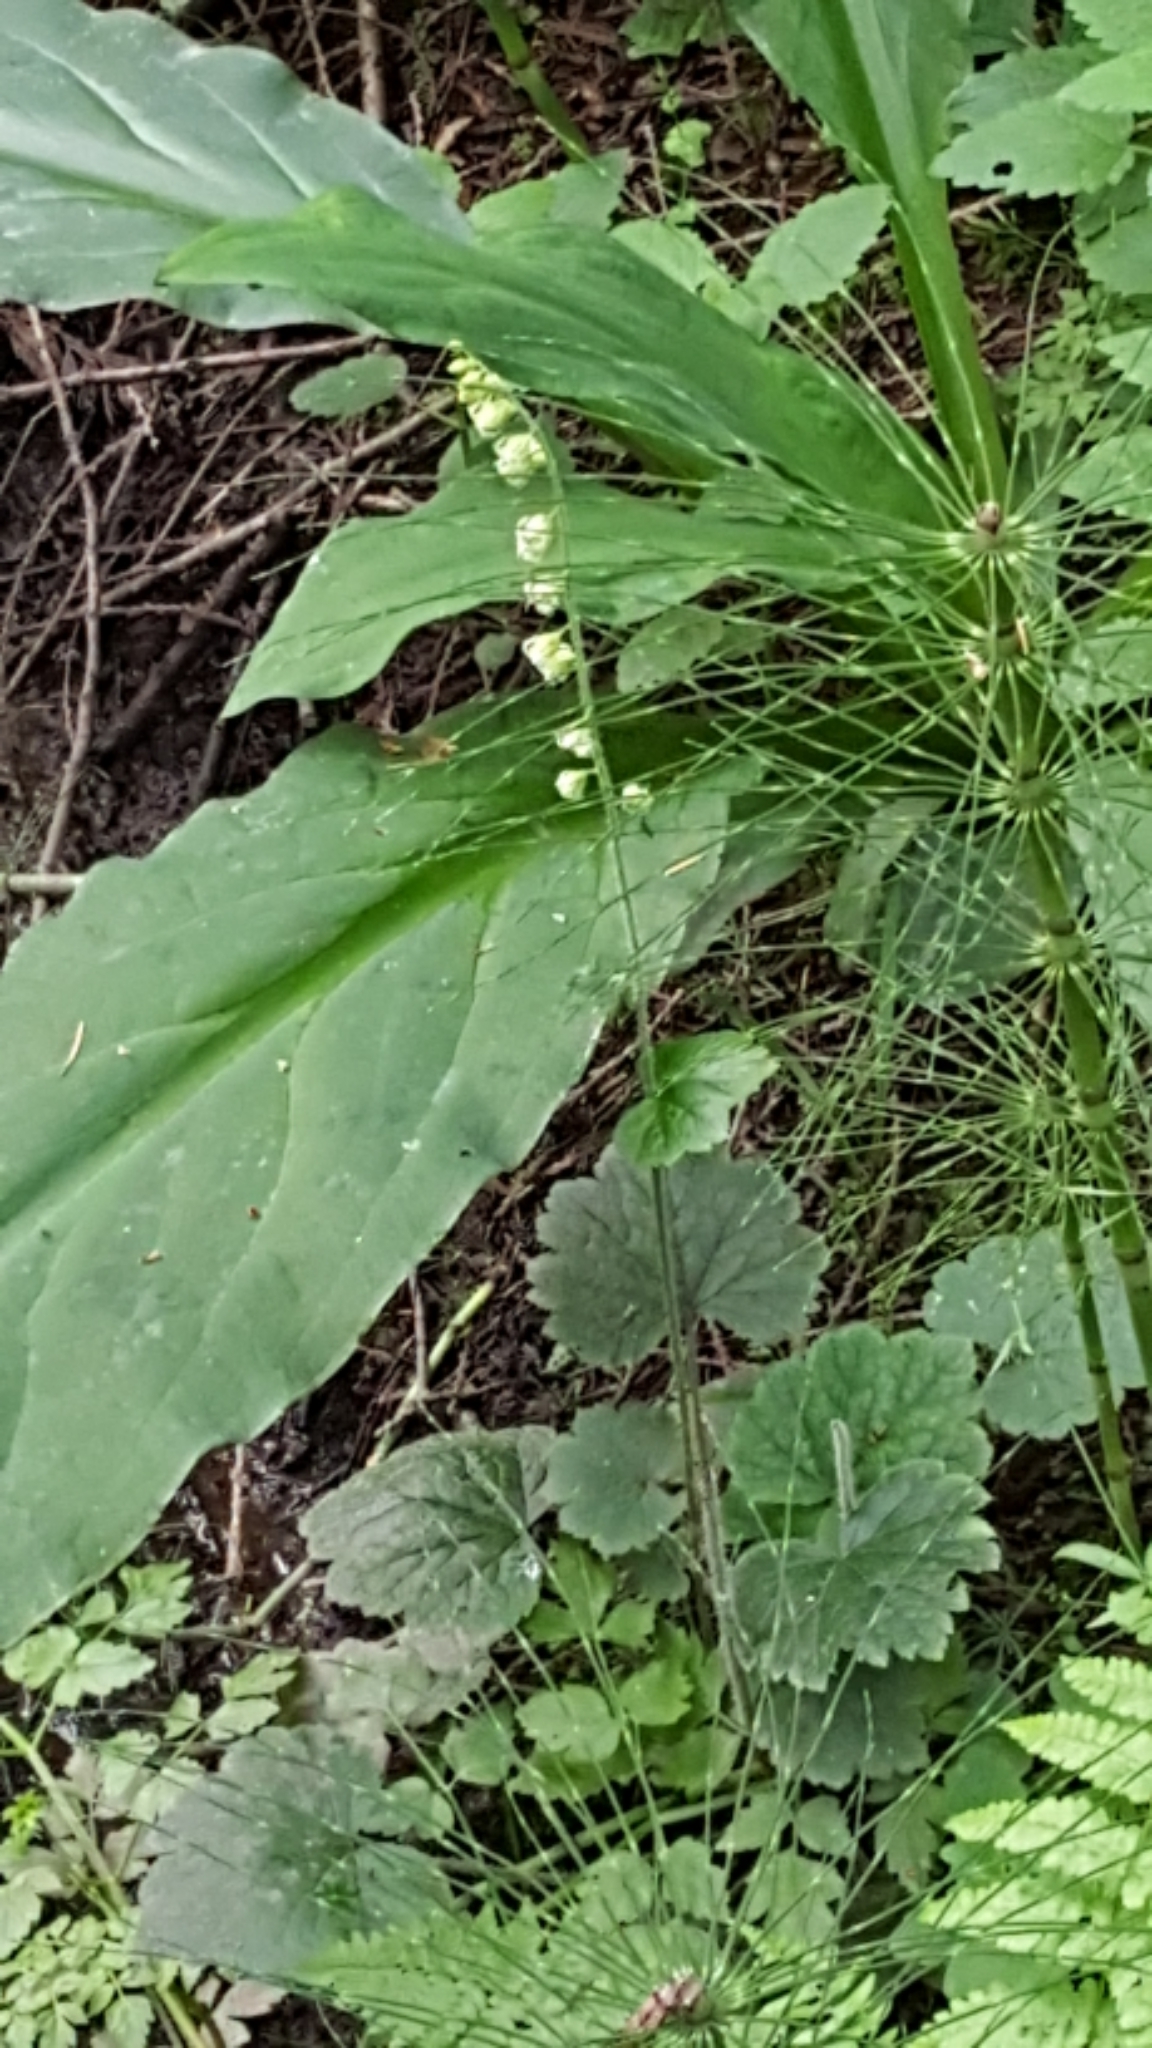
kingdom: Plantae
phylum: Tracheophyta
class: Magnoliopsida
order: Saxifragales
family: Saxifragaceae
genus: Tellima
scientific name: Tellima grandiflora
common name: Fringecups
